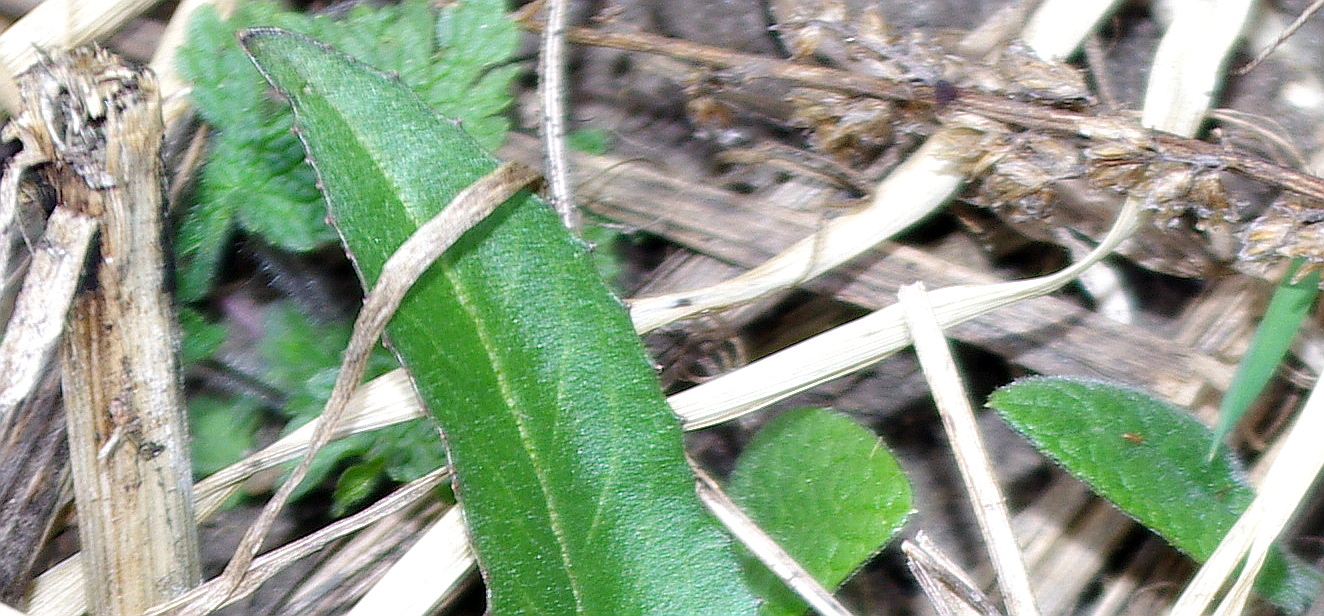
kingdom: Plantae
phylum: Tracheophyta
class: Magnoliopsida
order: Brassicales
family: Brassicaceae
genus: Bunias
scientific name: Bunias orientalis
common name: Warty-cabbage
